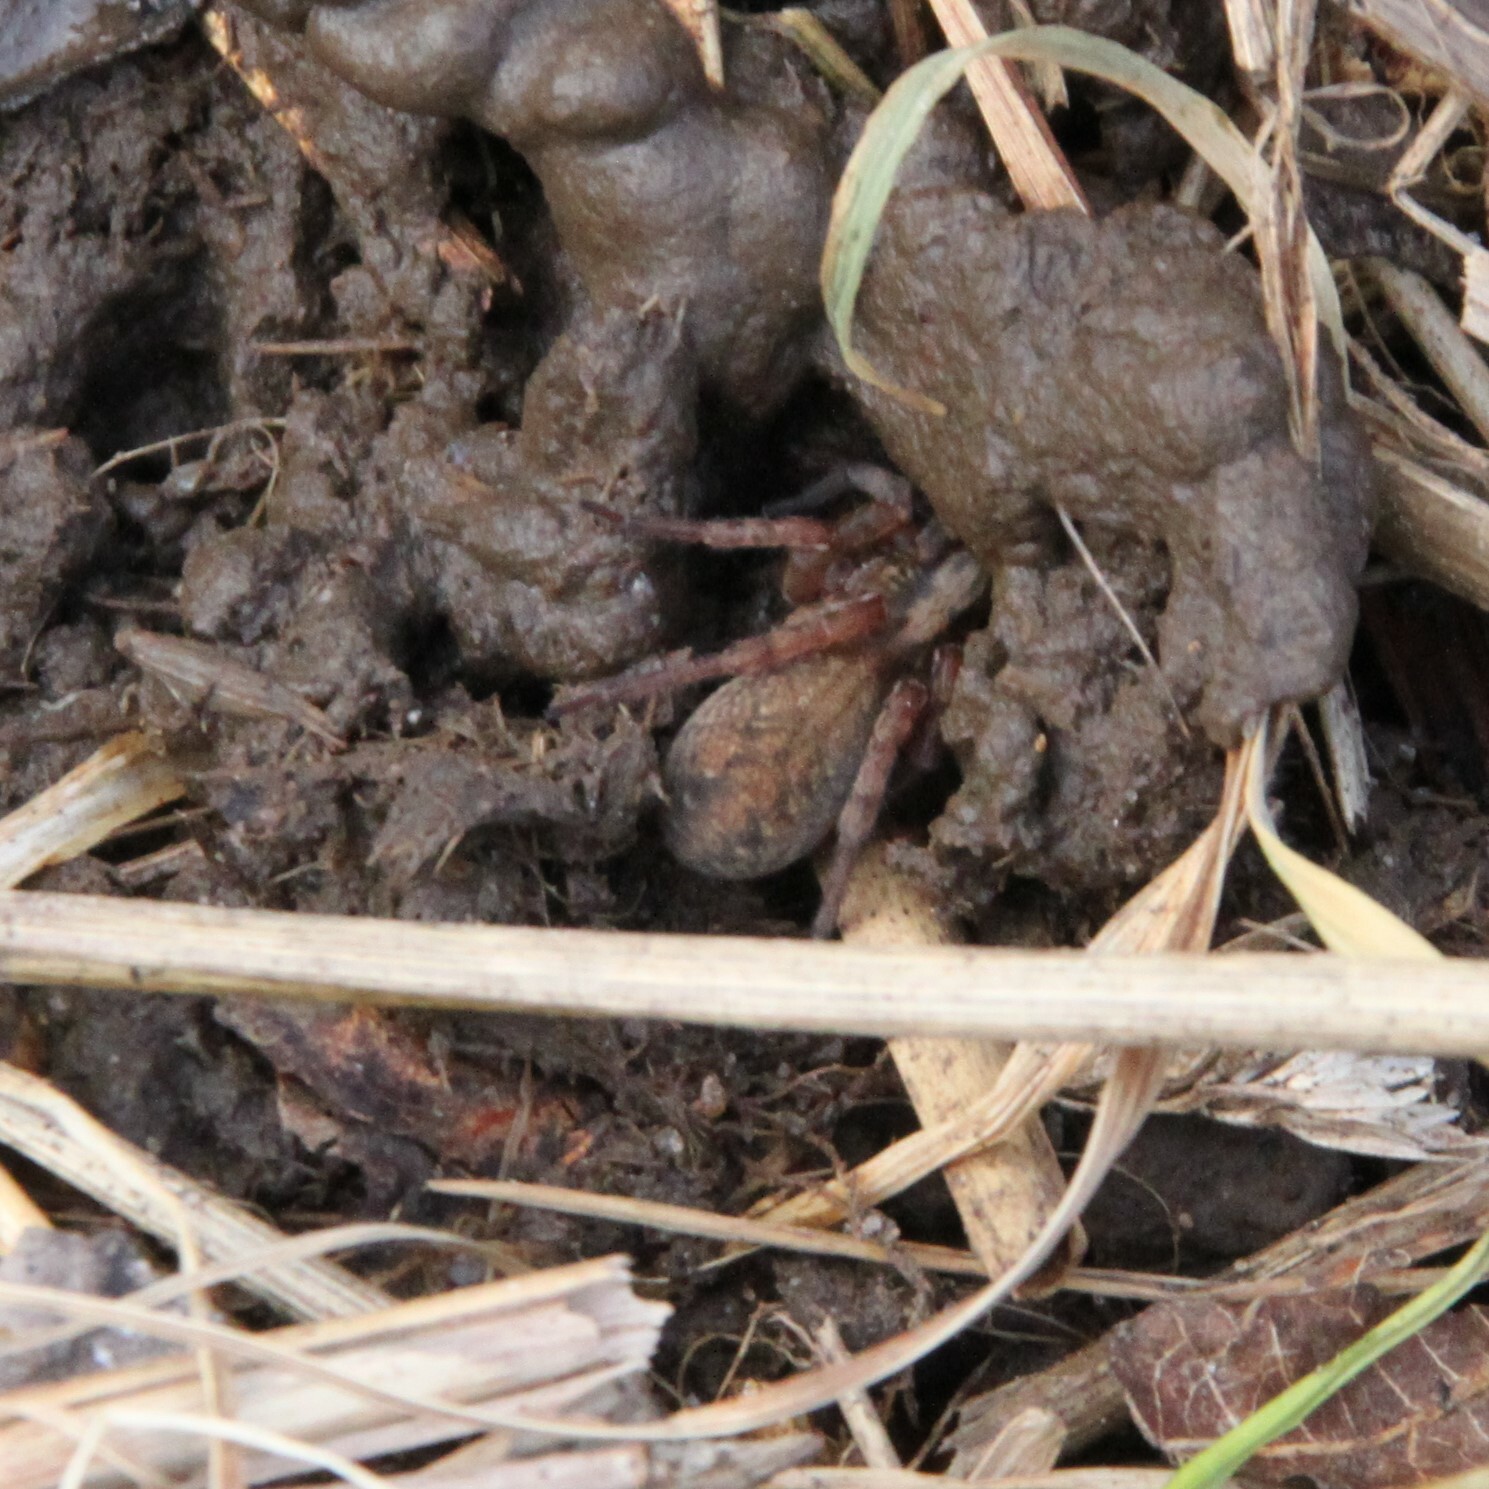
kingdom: Animalia
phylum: Arthropoda
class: Arachnida
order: Araneae
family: Lycosidae
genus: Trochosa
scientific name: Trochosa terricola
